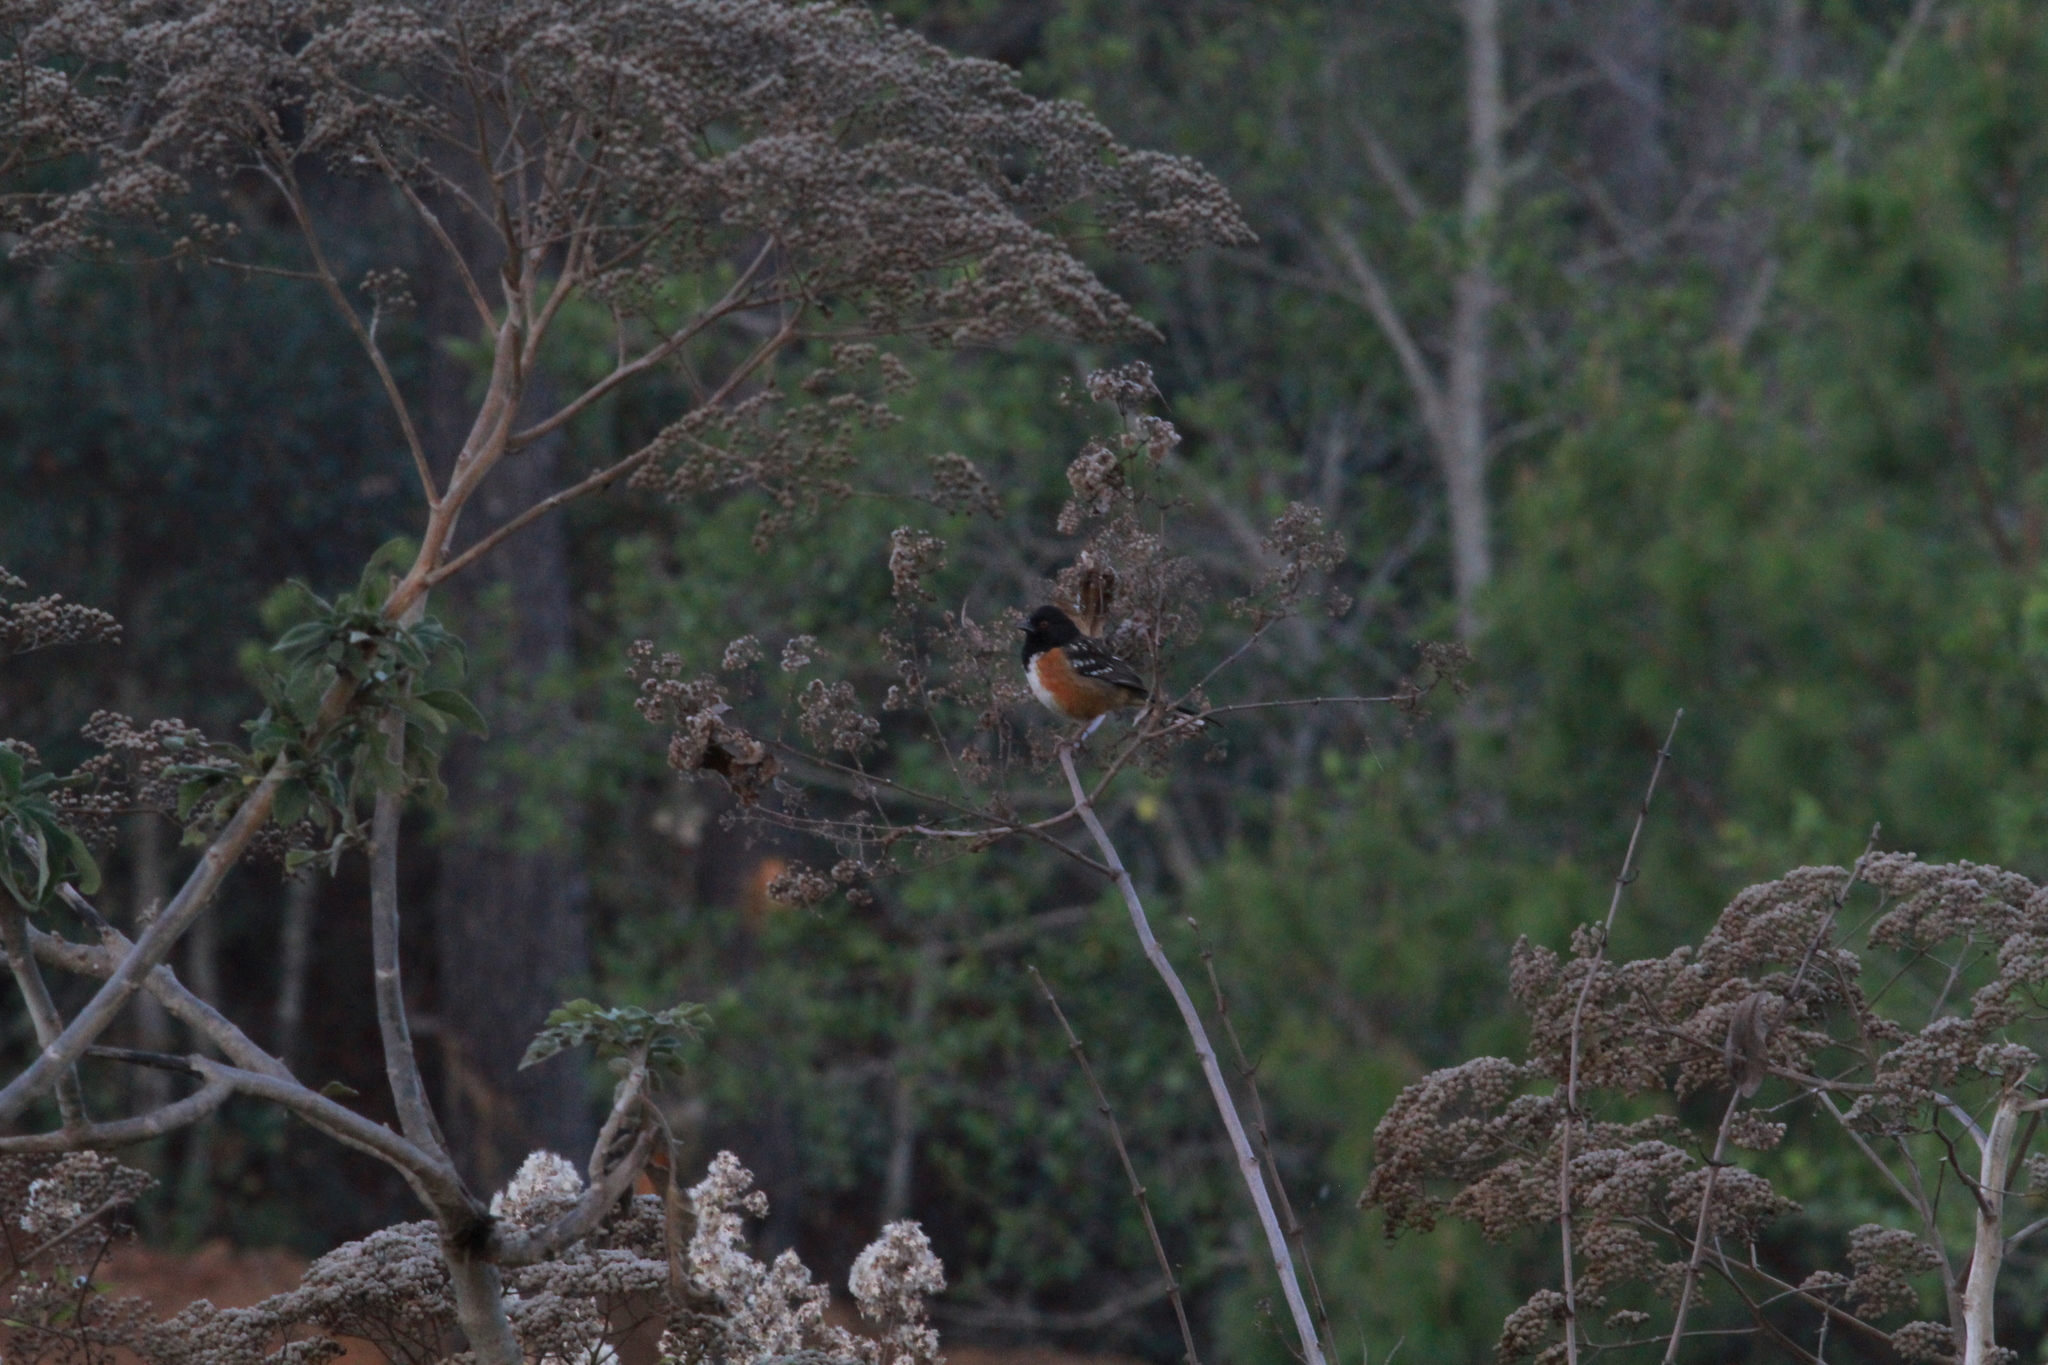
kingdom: Animalia
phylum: Chordata
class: Aves
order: Passeriformes
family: Passerellidae
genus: Pipilo
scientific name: Pipilo maculatus
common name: Spotted towhee
